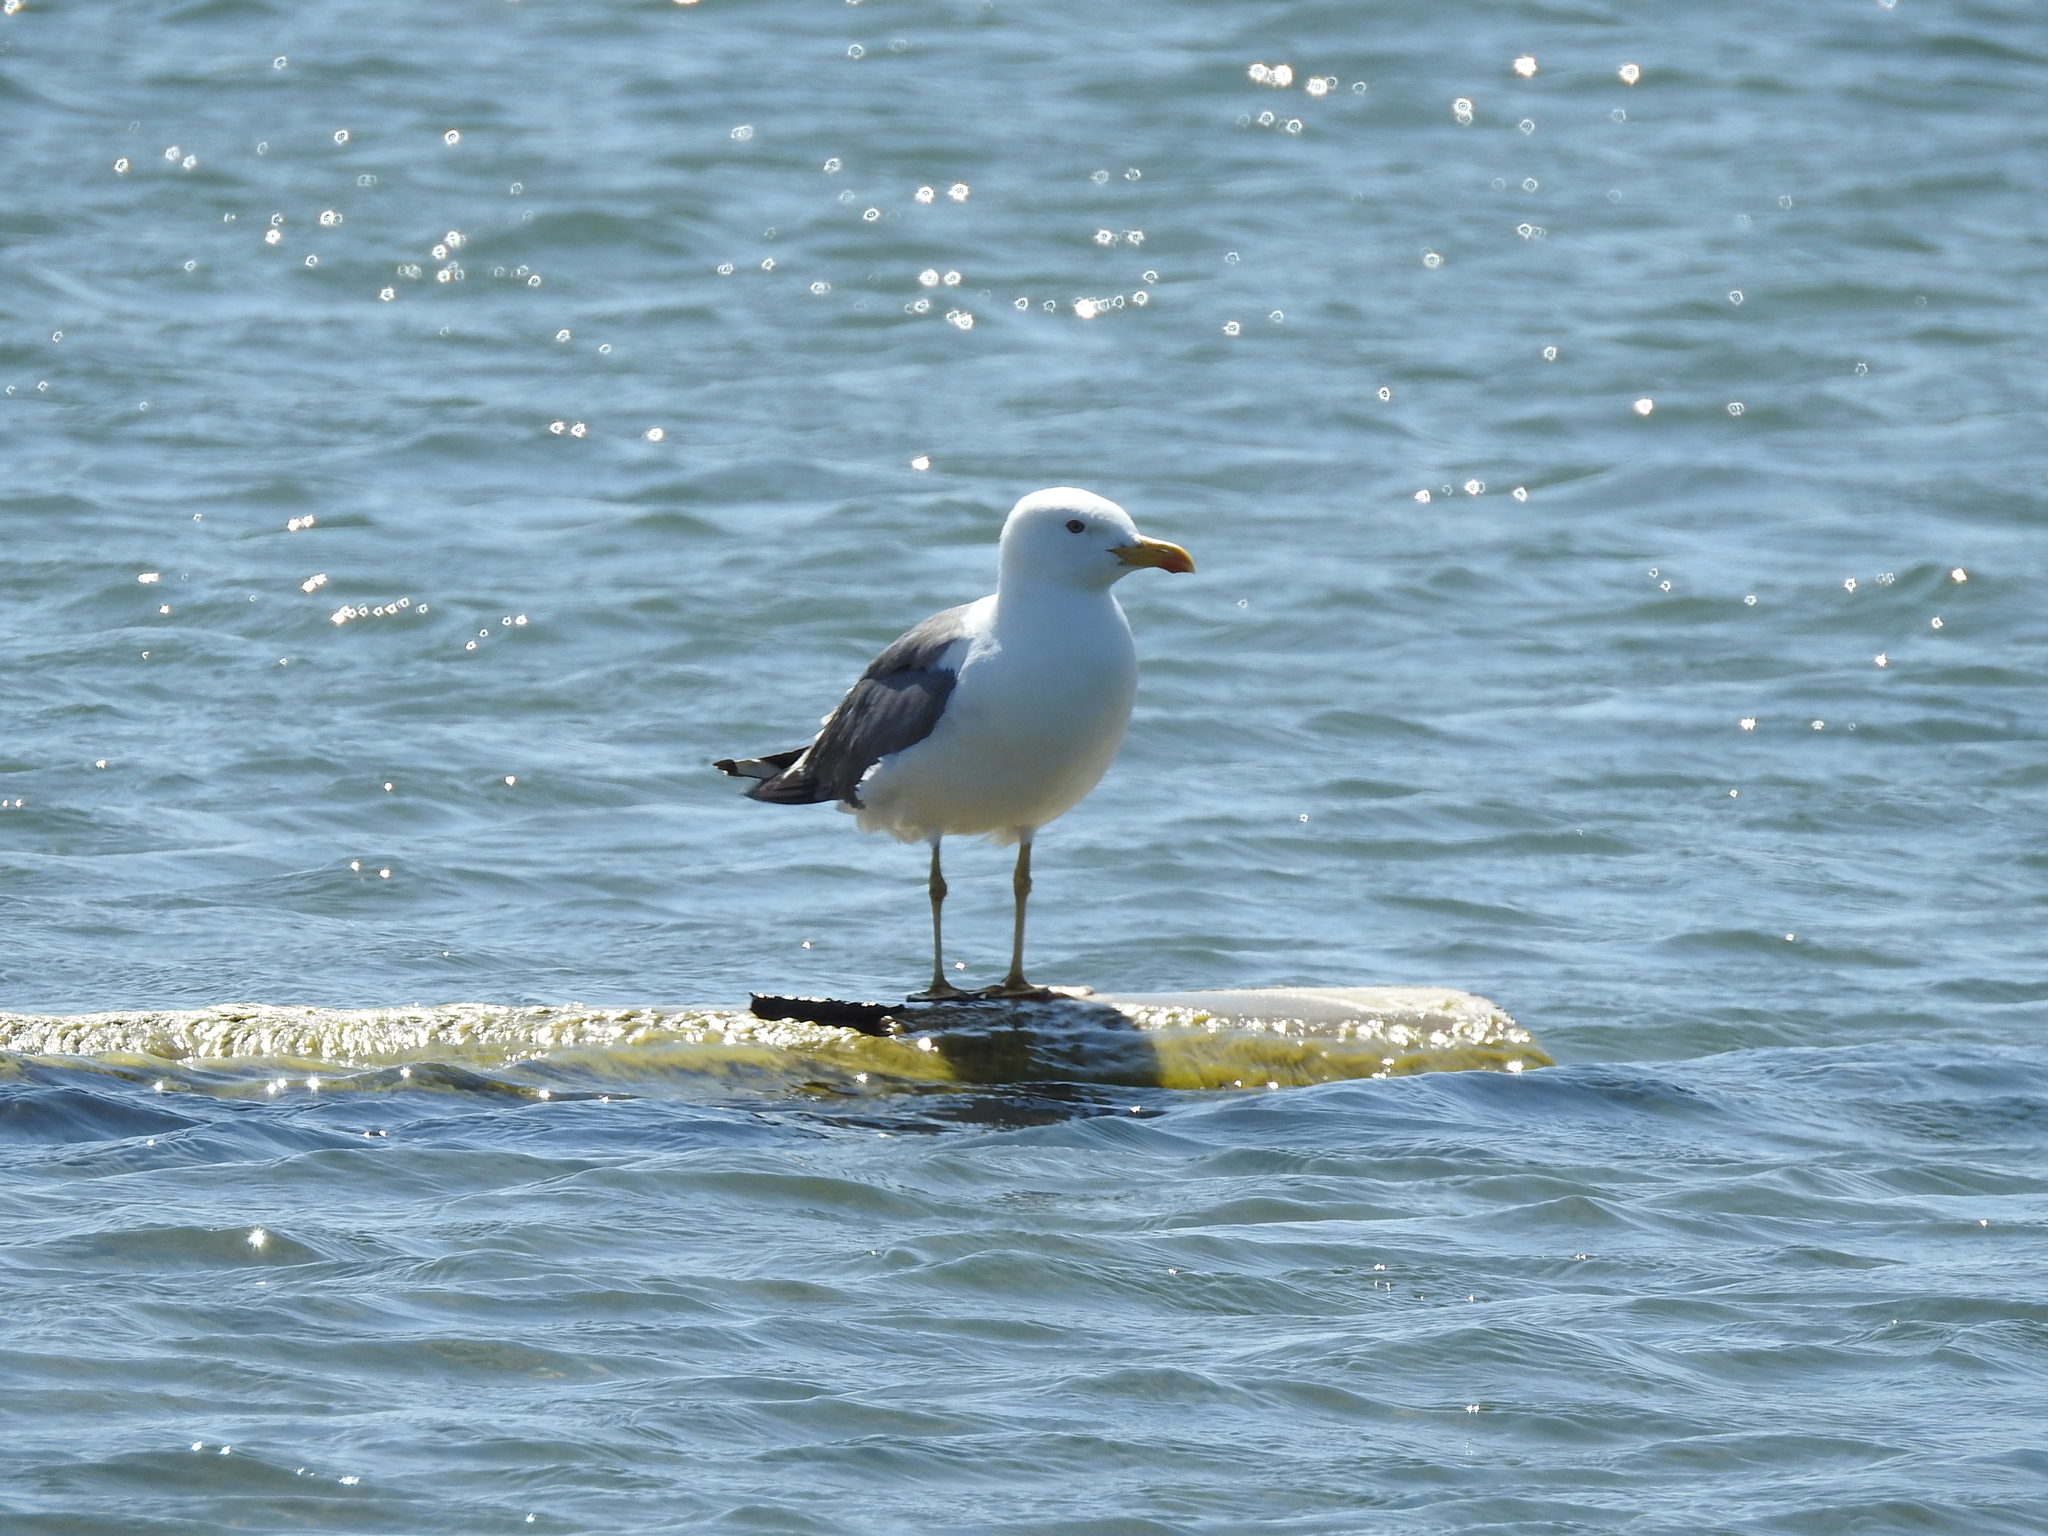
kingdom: Animalia
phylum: Chordata
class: Aves
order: Charadriiformes
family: Laridae
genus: Larus
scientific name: Larus fuscus
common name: Lesser black-backed gull
